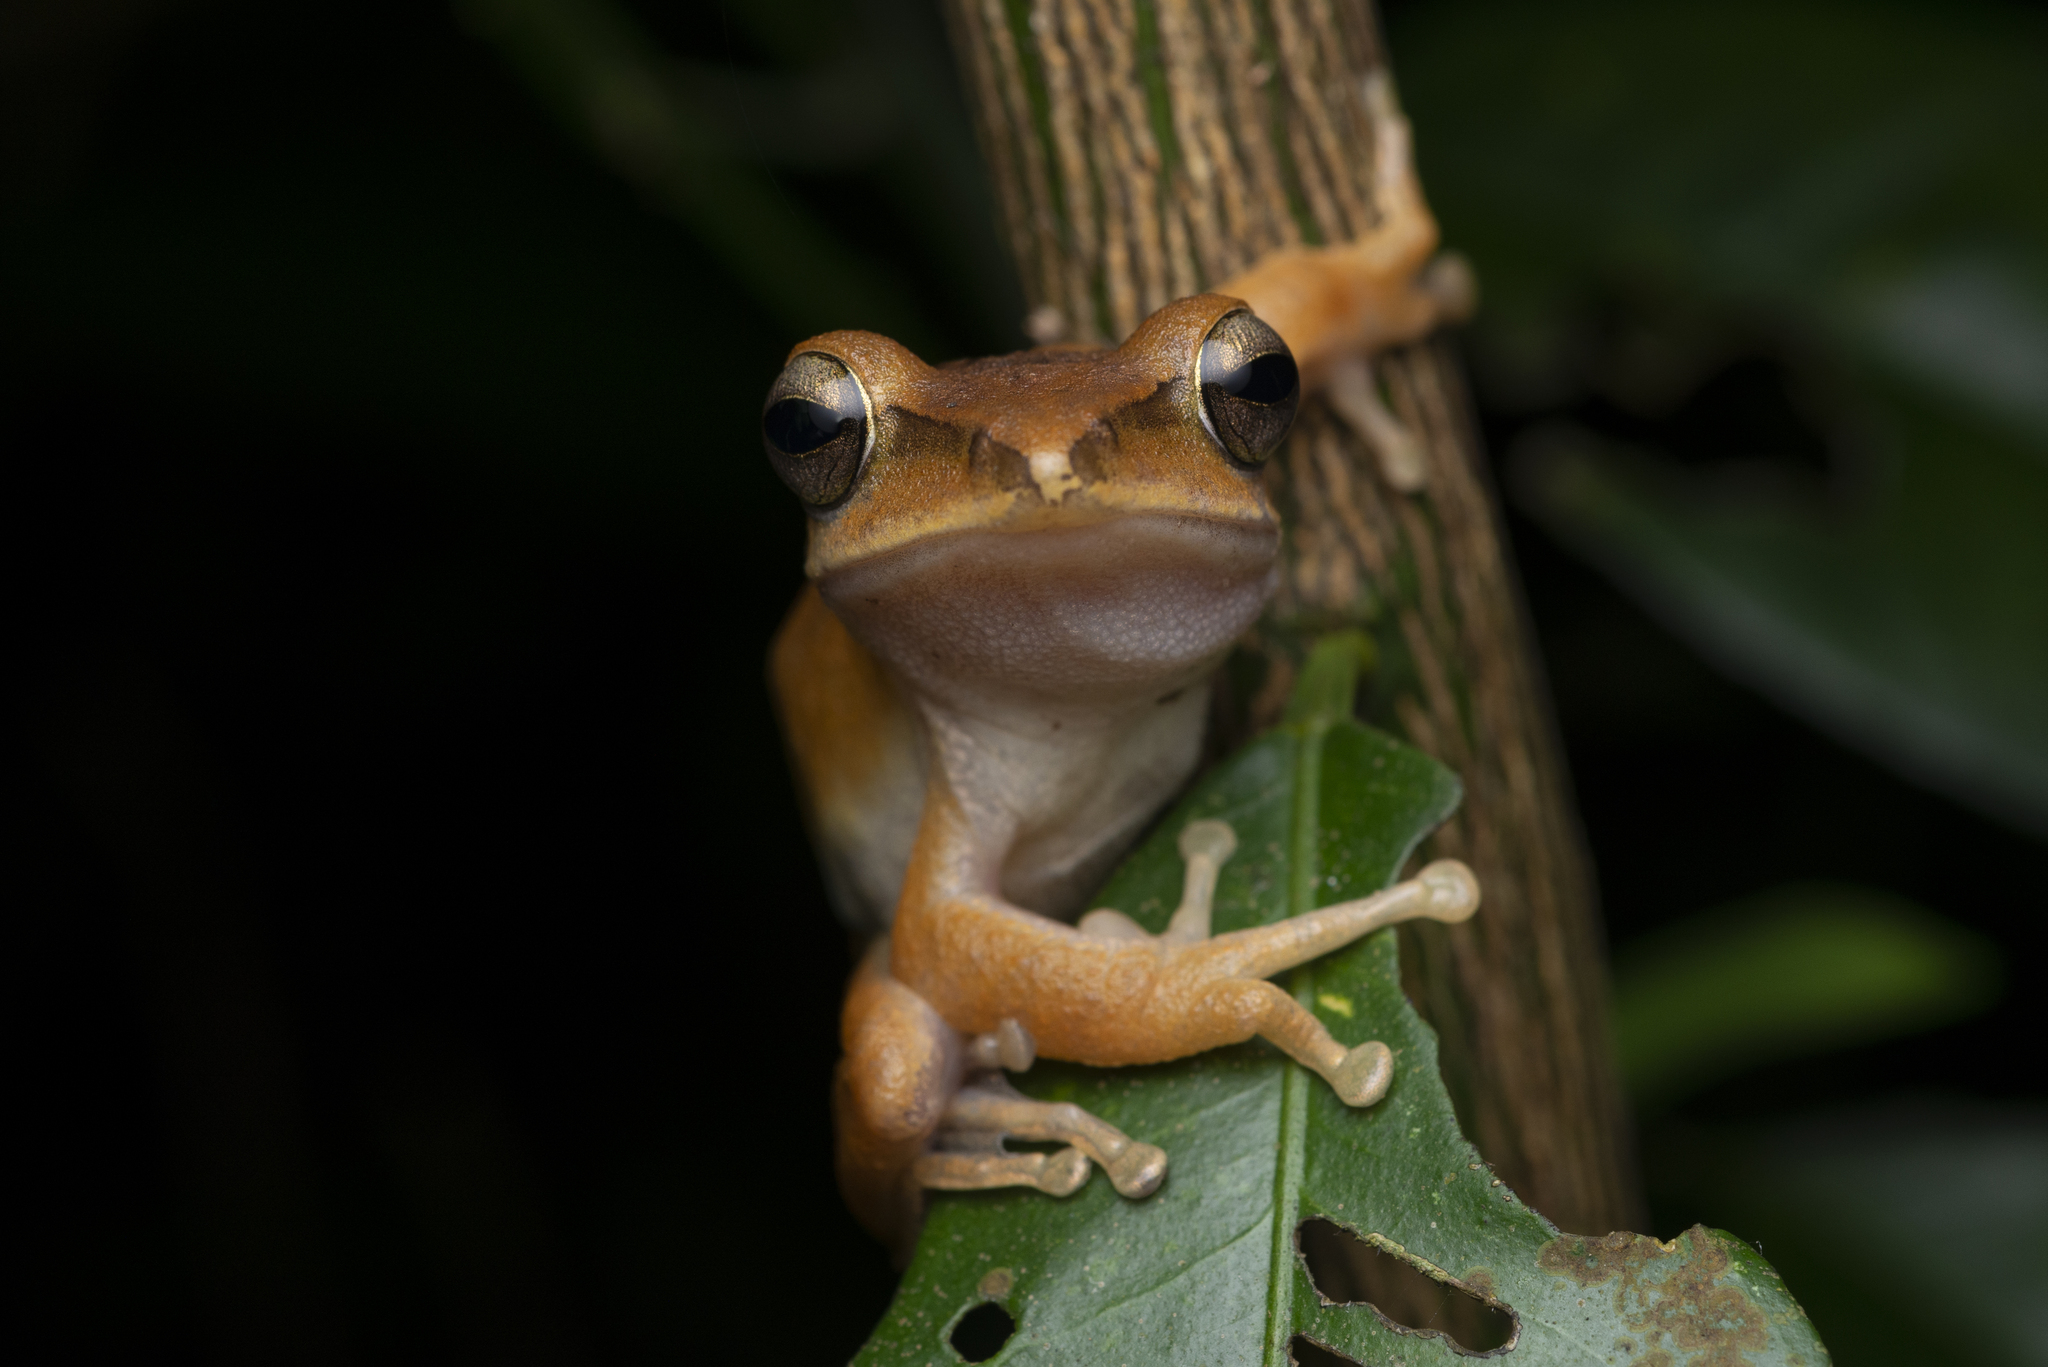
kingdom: Animalia
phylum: Chordata
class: Amphibia
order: Anura
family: Rhacophoridae
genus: Polypedates
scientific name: Polypedates megacephalus
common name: Hong kong whipping frog
